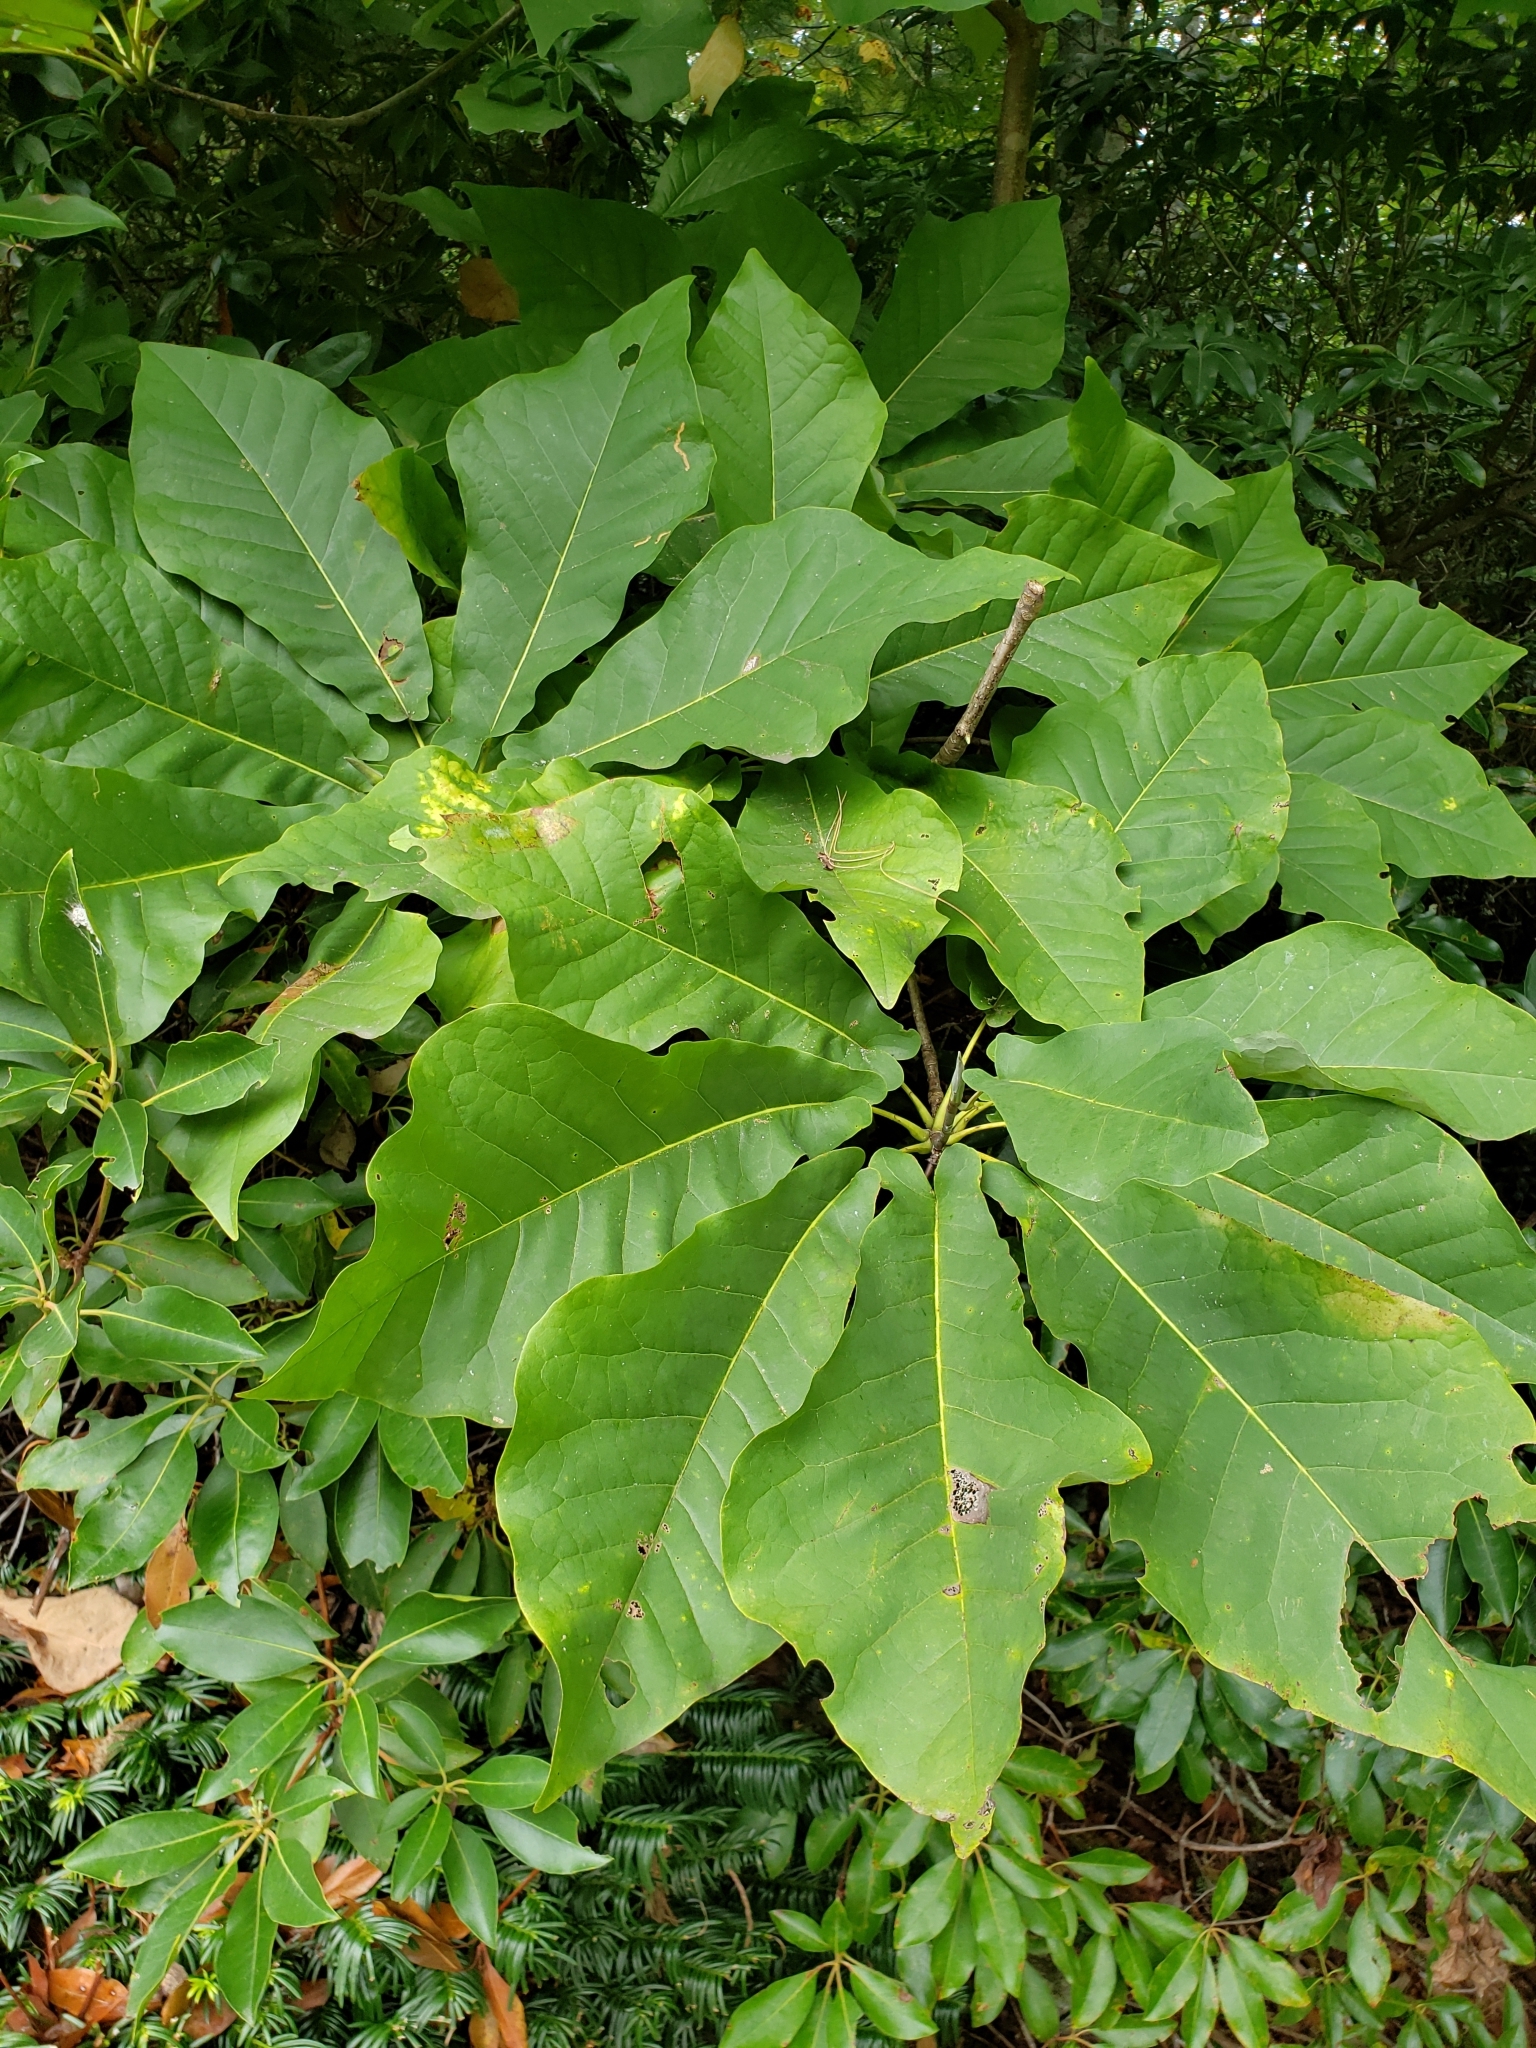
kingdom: Plantae
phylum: Tracheophyta
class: Magnoliopsida
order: Magnoliales
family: Magnoliaceae
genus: Magnolia
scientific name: Magnolia fraseri
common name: Fraser's magnolia
